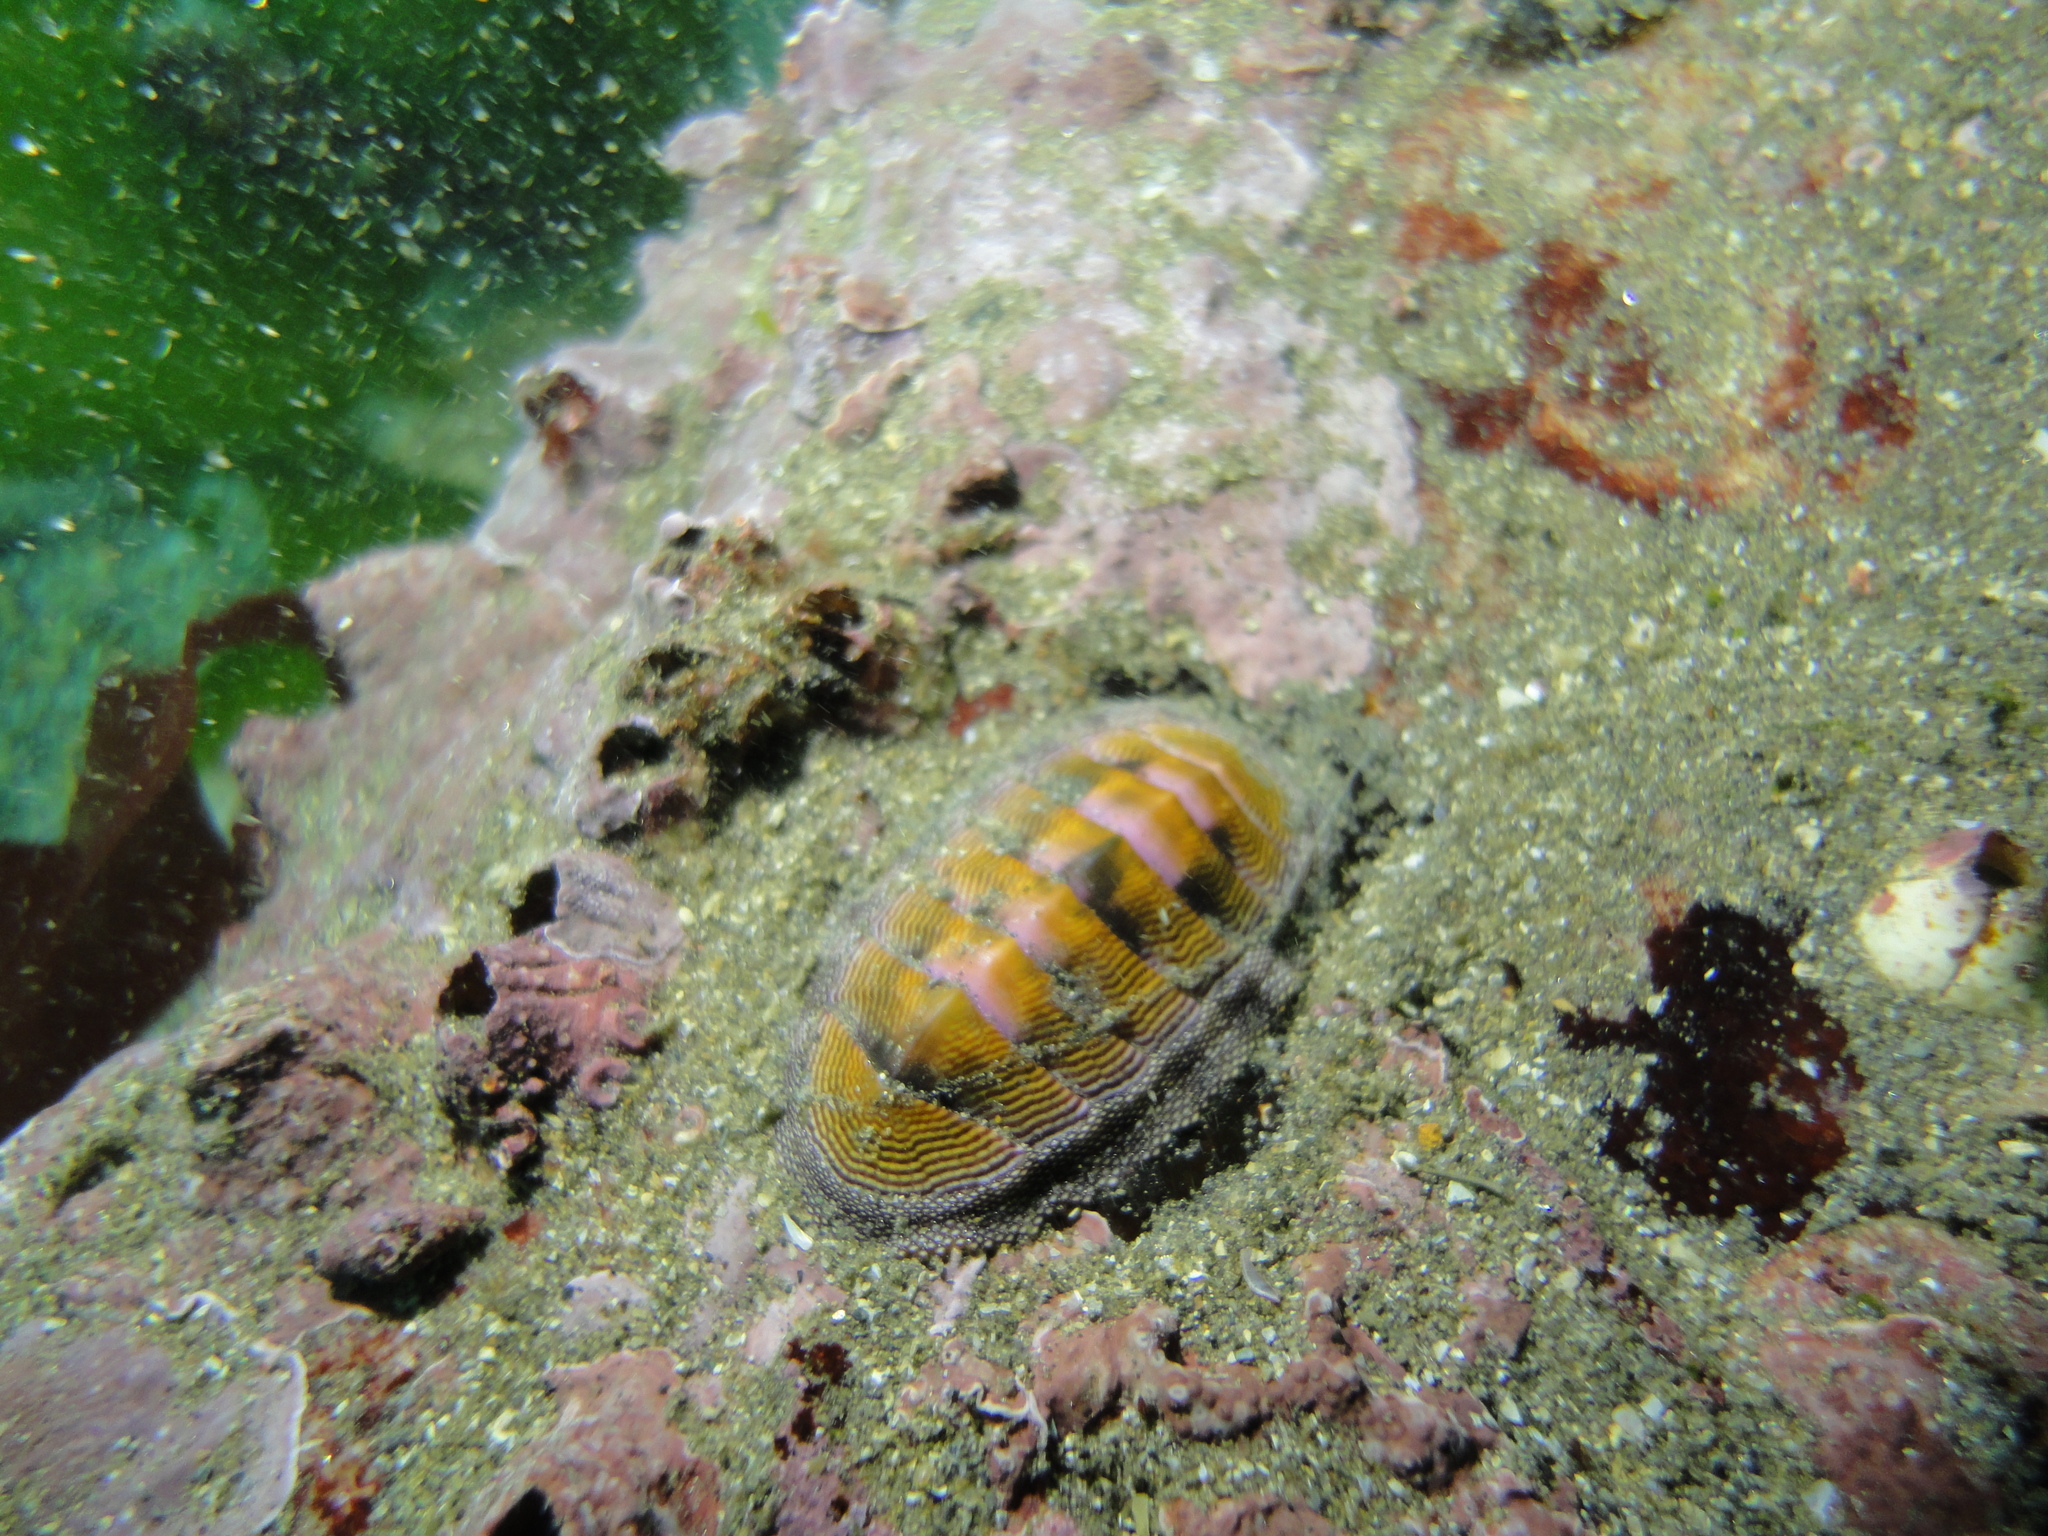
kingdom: Animalia
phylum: Mollusca
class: Polyplacophora
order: Chitonida
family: Chitonidae
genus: Chiton
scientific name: Chiton cumingsii
